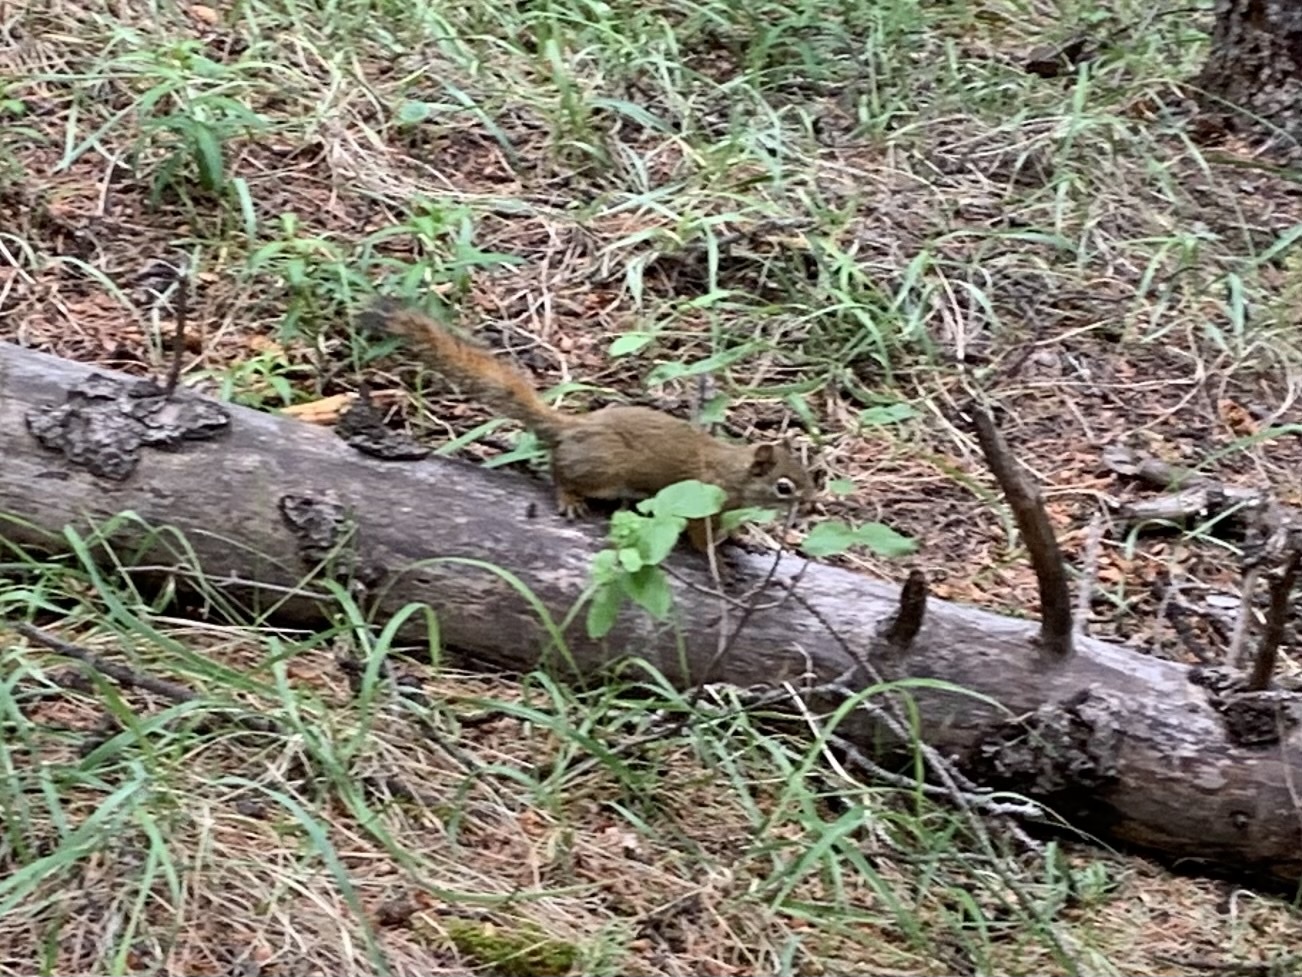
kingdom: Animalia
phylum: Chordata
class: Mammalia
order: Rodentia
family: Sciuridae
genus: Tamiasciurus
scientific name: Tamiasciurus hudsonicus
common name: Red squirrel
